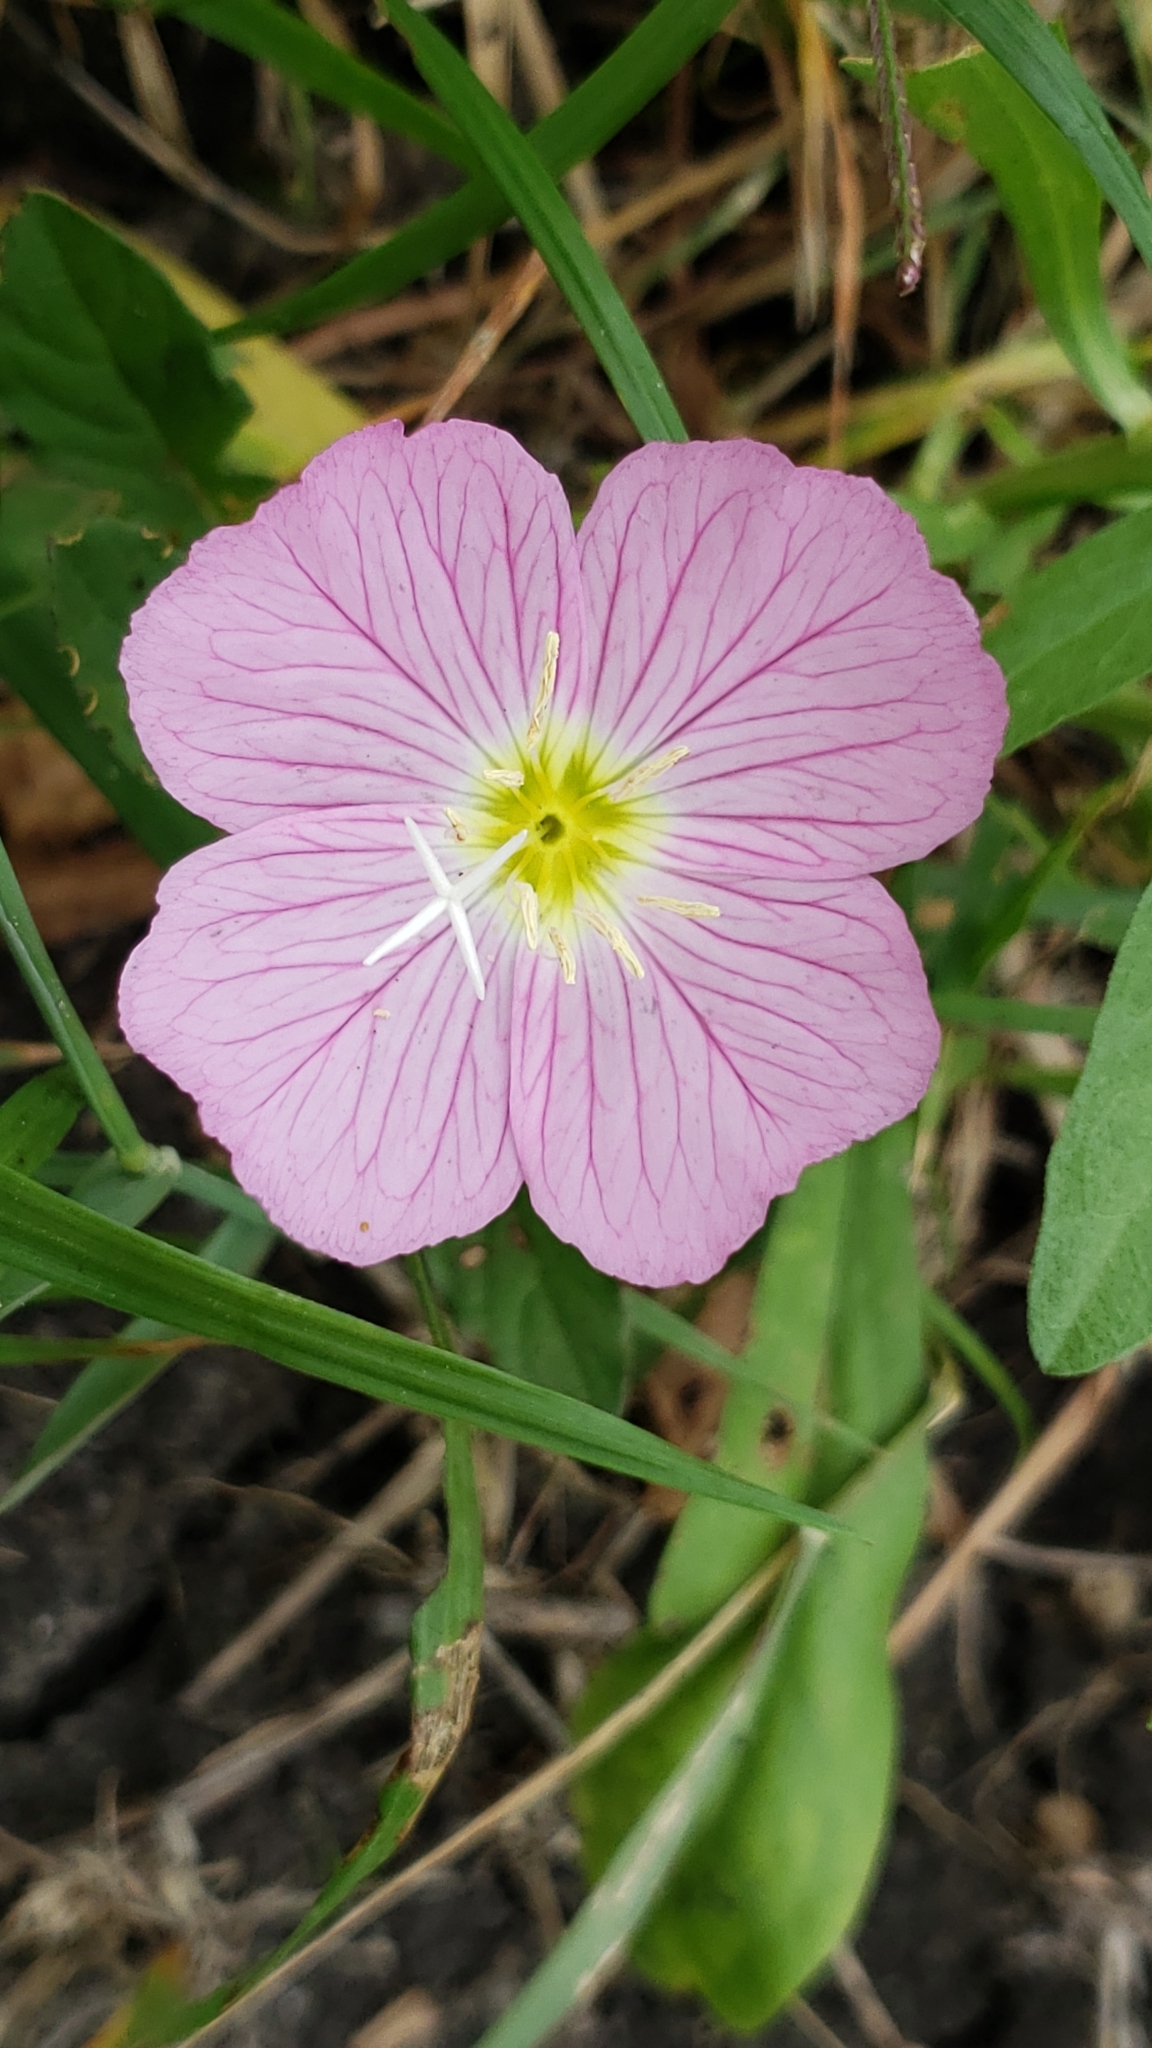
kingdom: Plantae
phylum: Tracheophyta
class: Magnoliopsida
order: Myrtales
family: Onagraceae
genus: Oenothera
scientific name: Oenothera speciosa
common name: White evening-primrose
